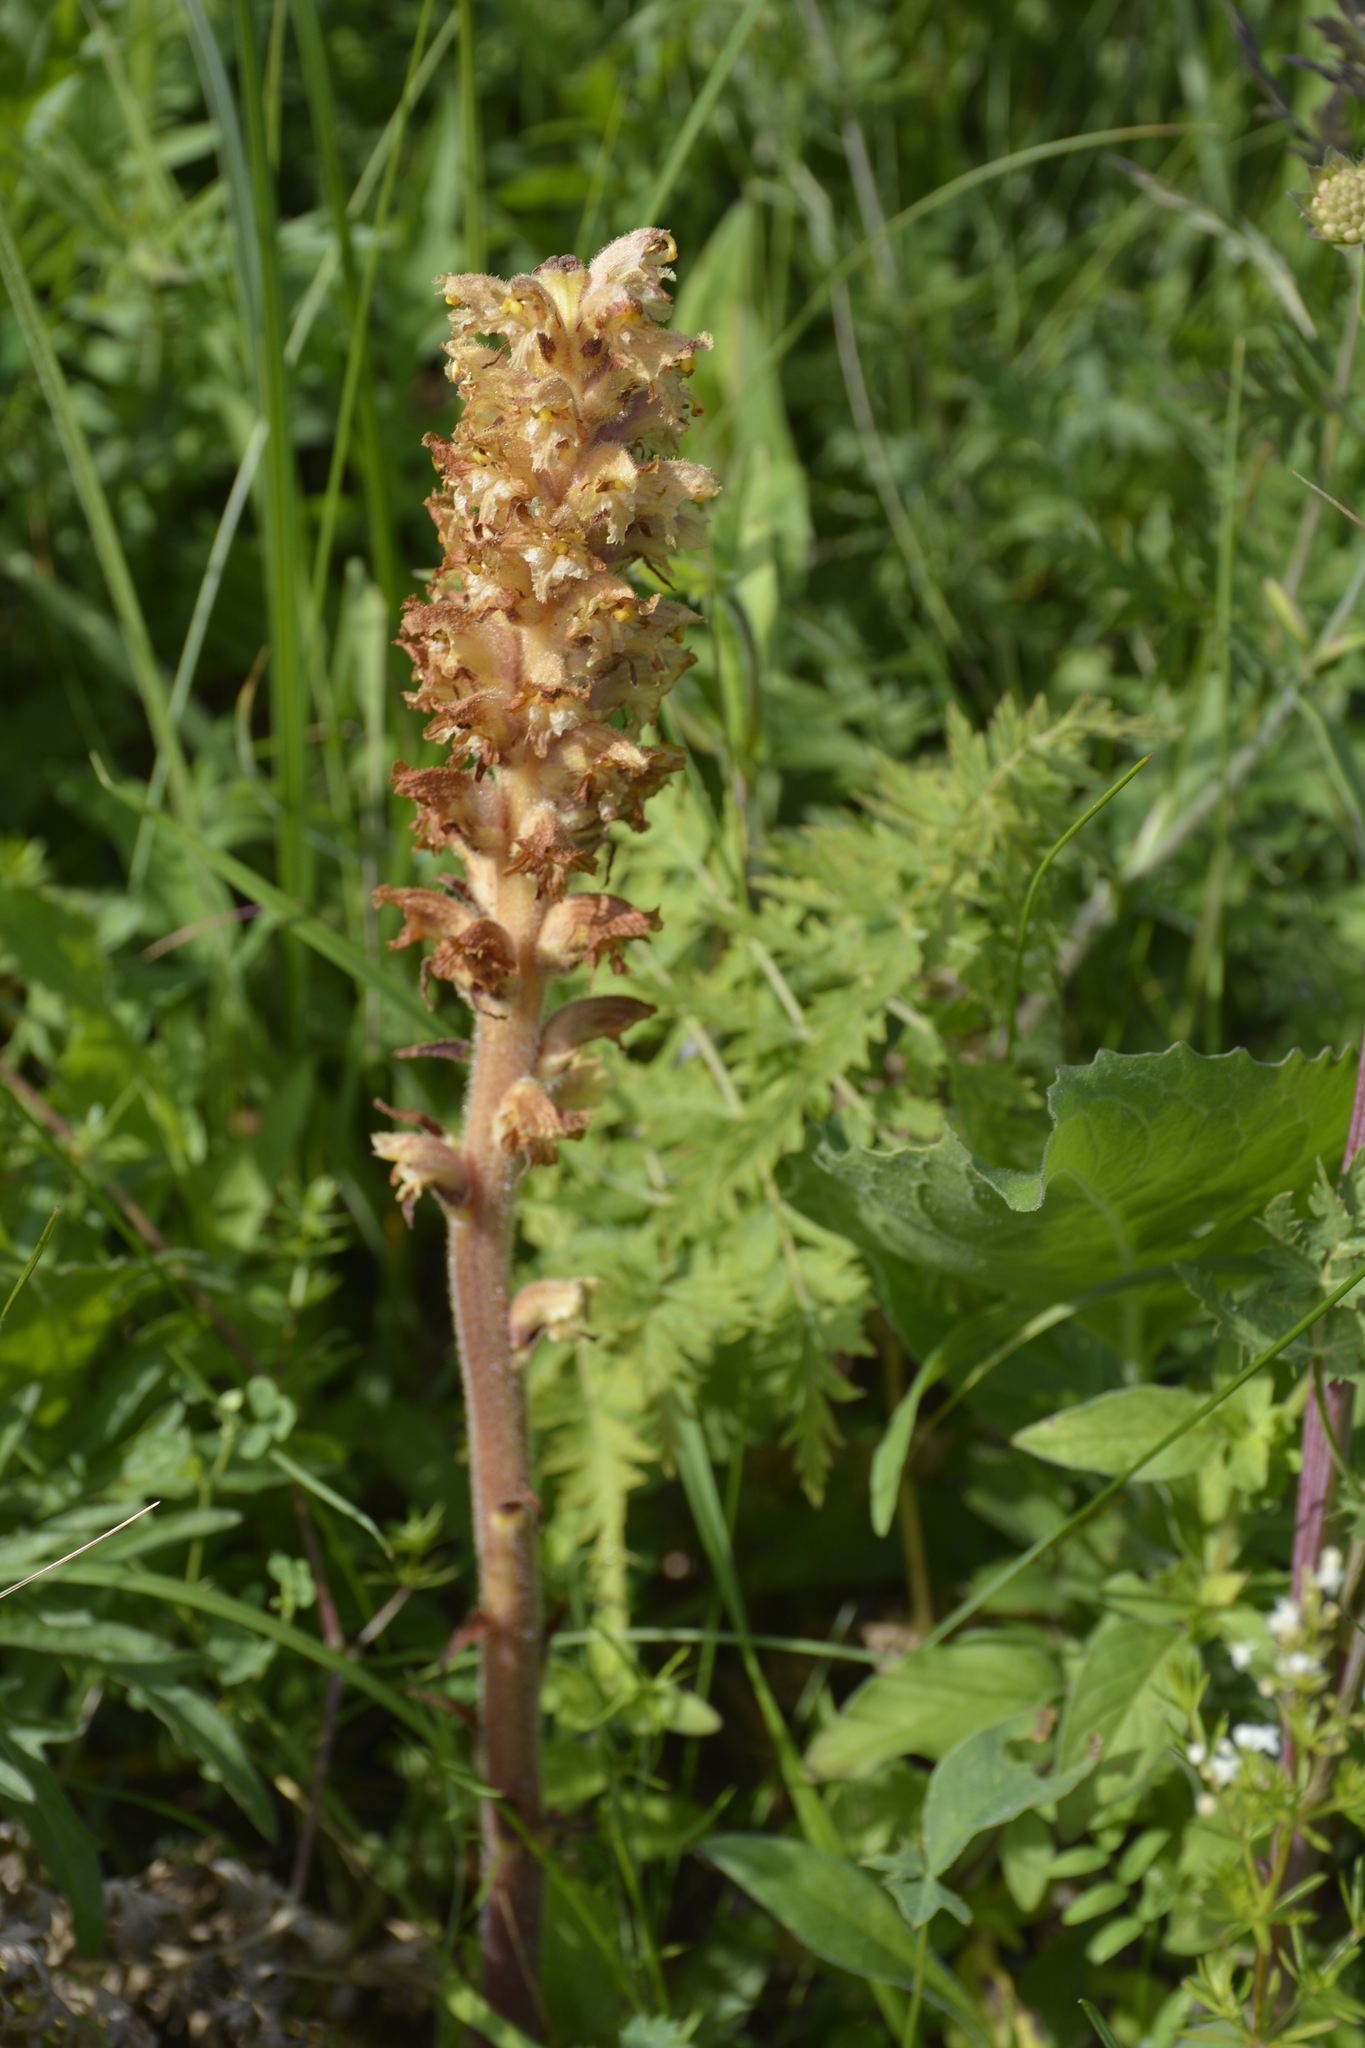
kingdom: Plantae
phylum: Tracheophyta
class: Magnoliopsida
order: Lamiales
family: Orobanchaceae
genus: Orobanche
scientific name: Orobanche alsatica
